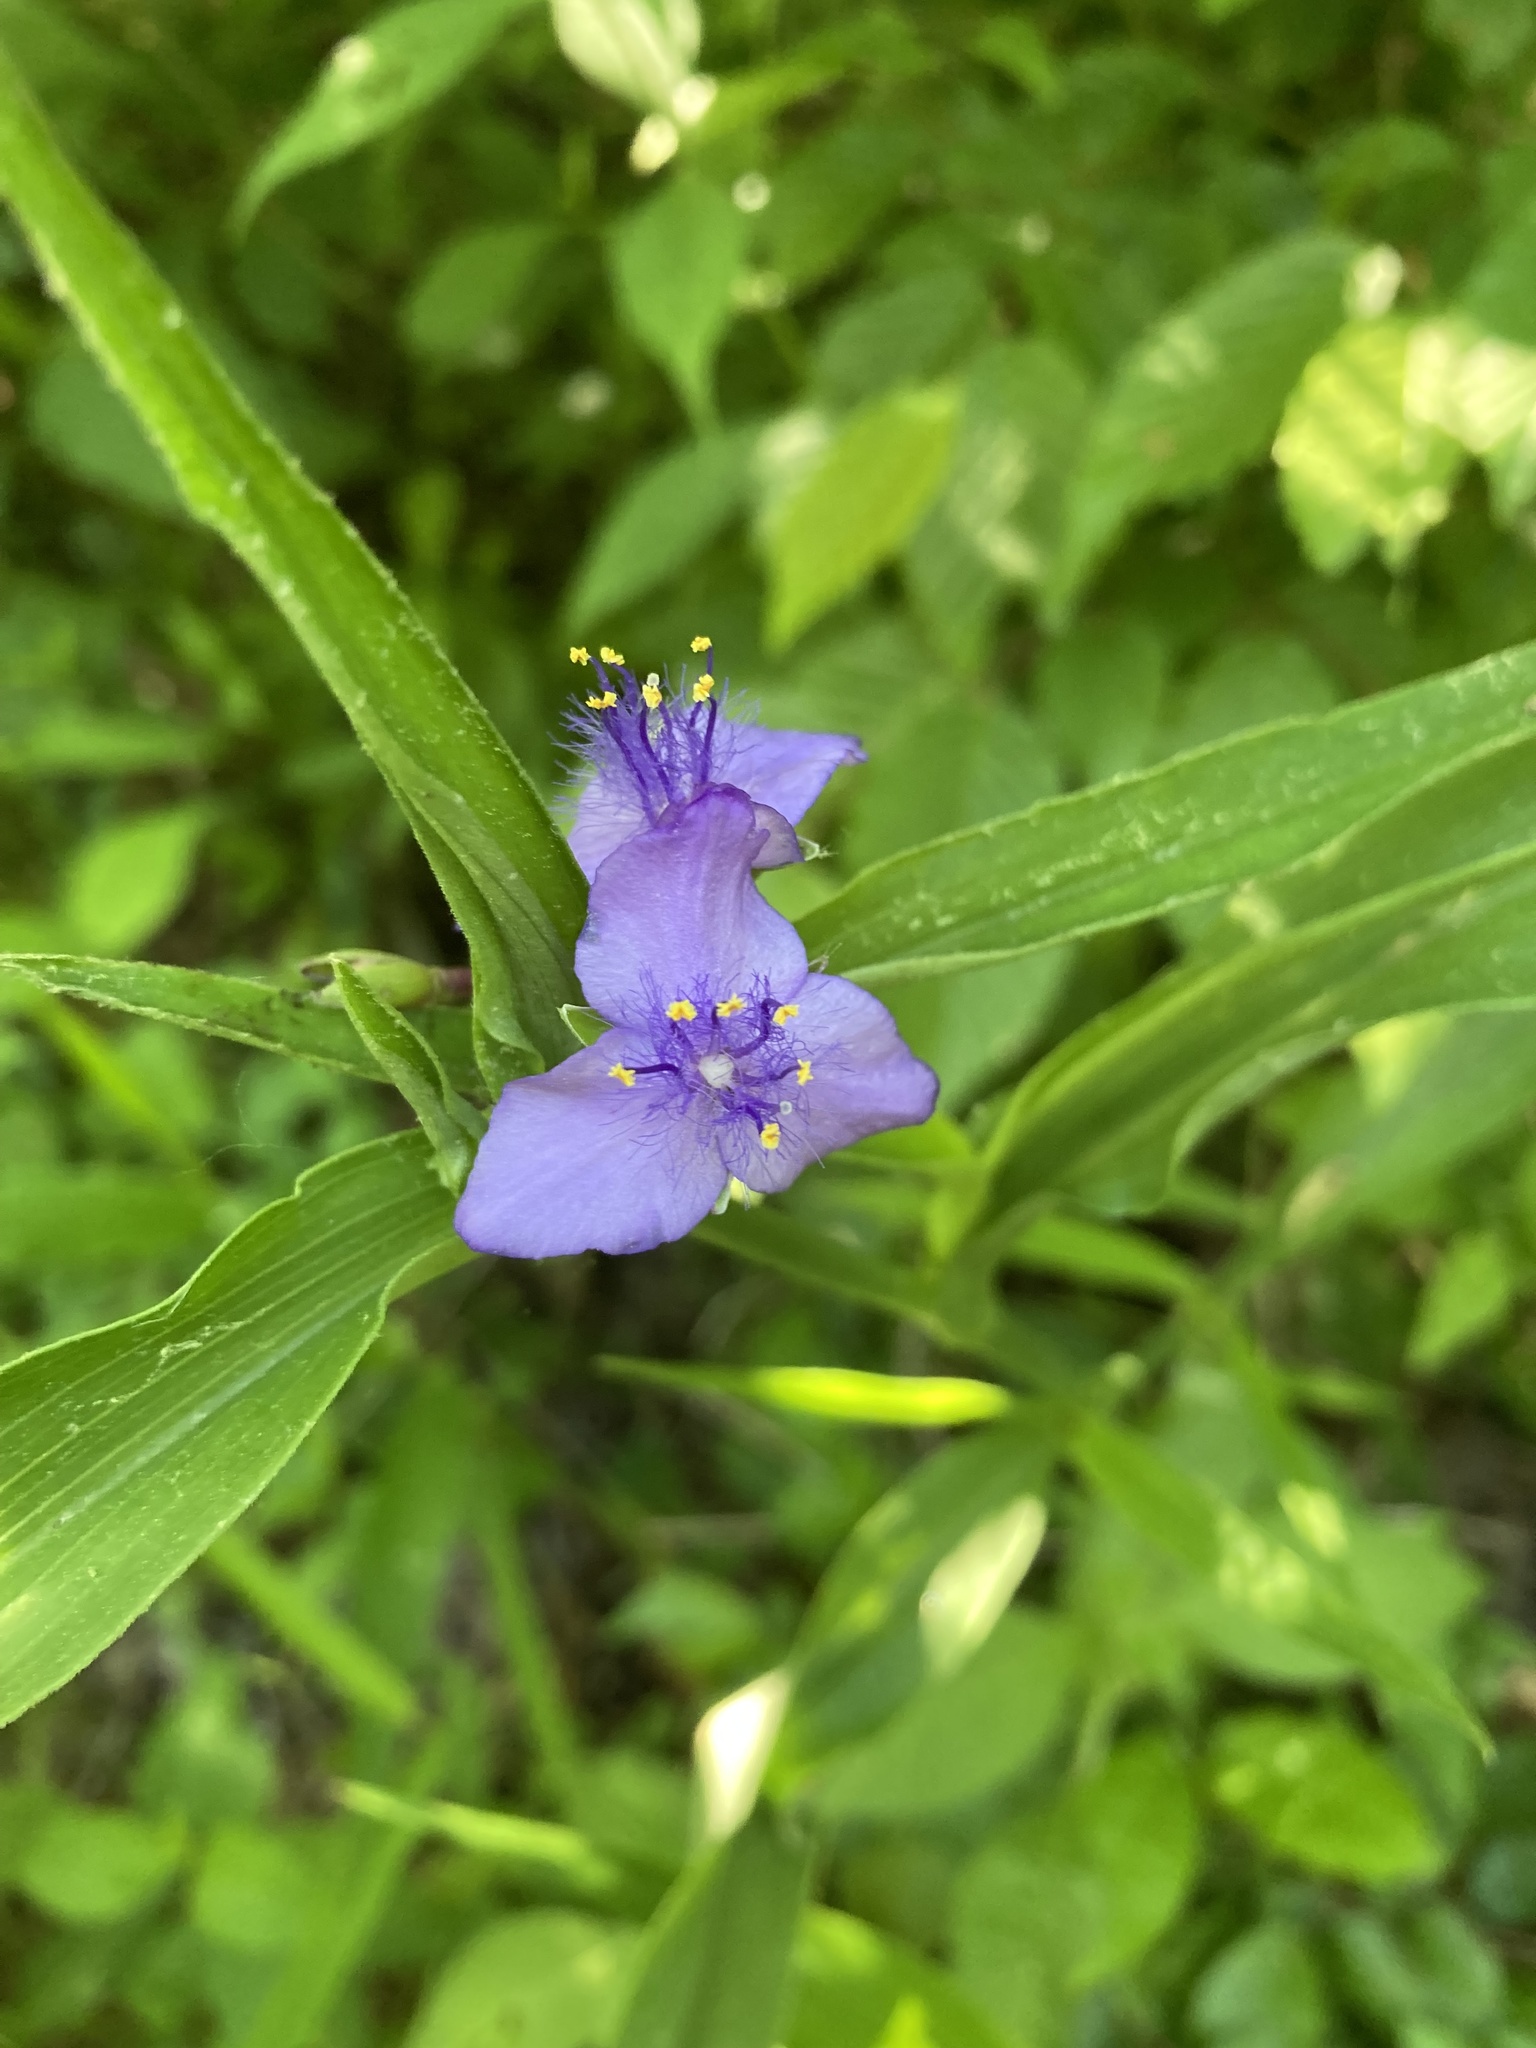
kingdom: Plantae
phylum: Tracheophyta
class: Liliopsida
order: Commelinales
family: Commelinaceae
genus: Tradescantia
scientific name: Tradescantia virginiana
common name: Spiderwort
